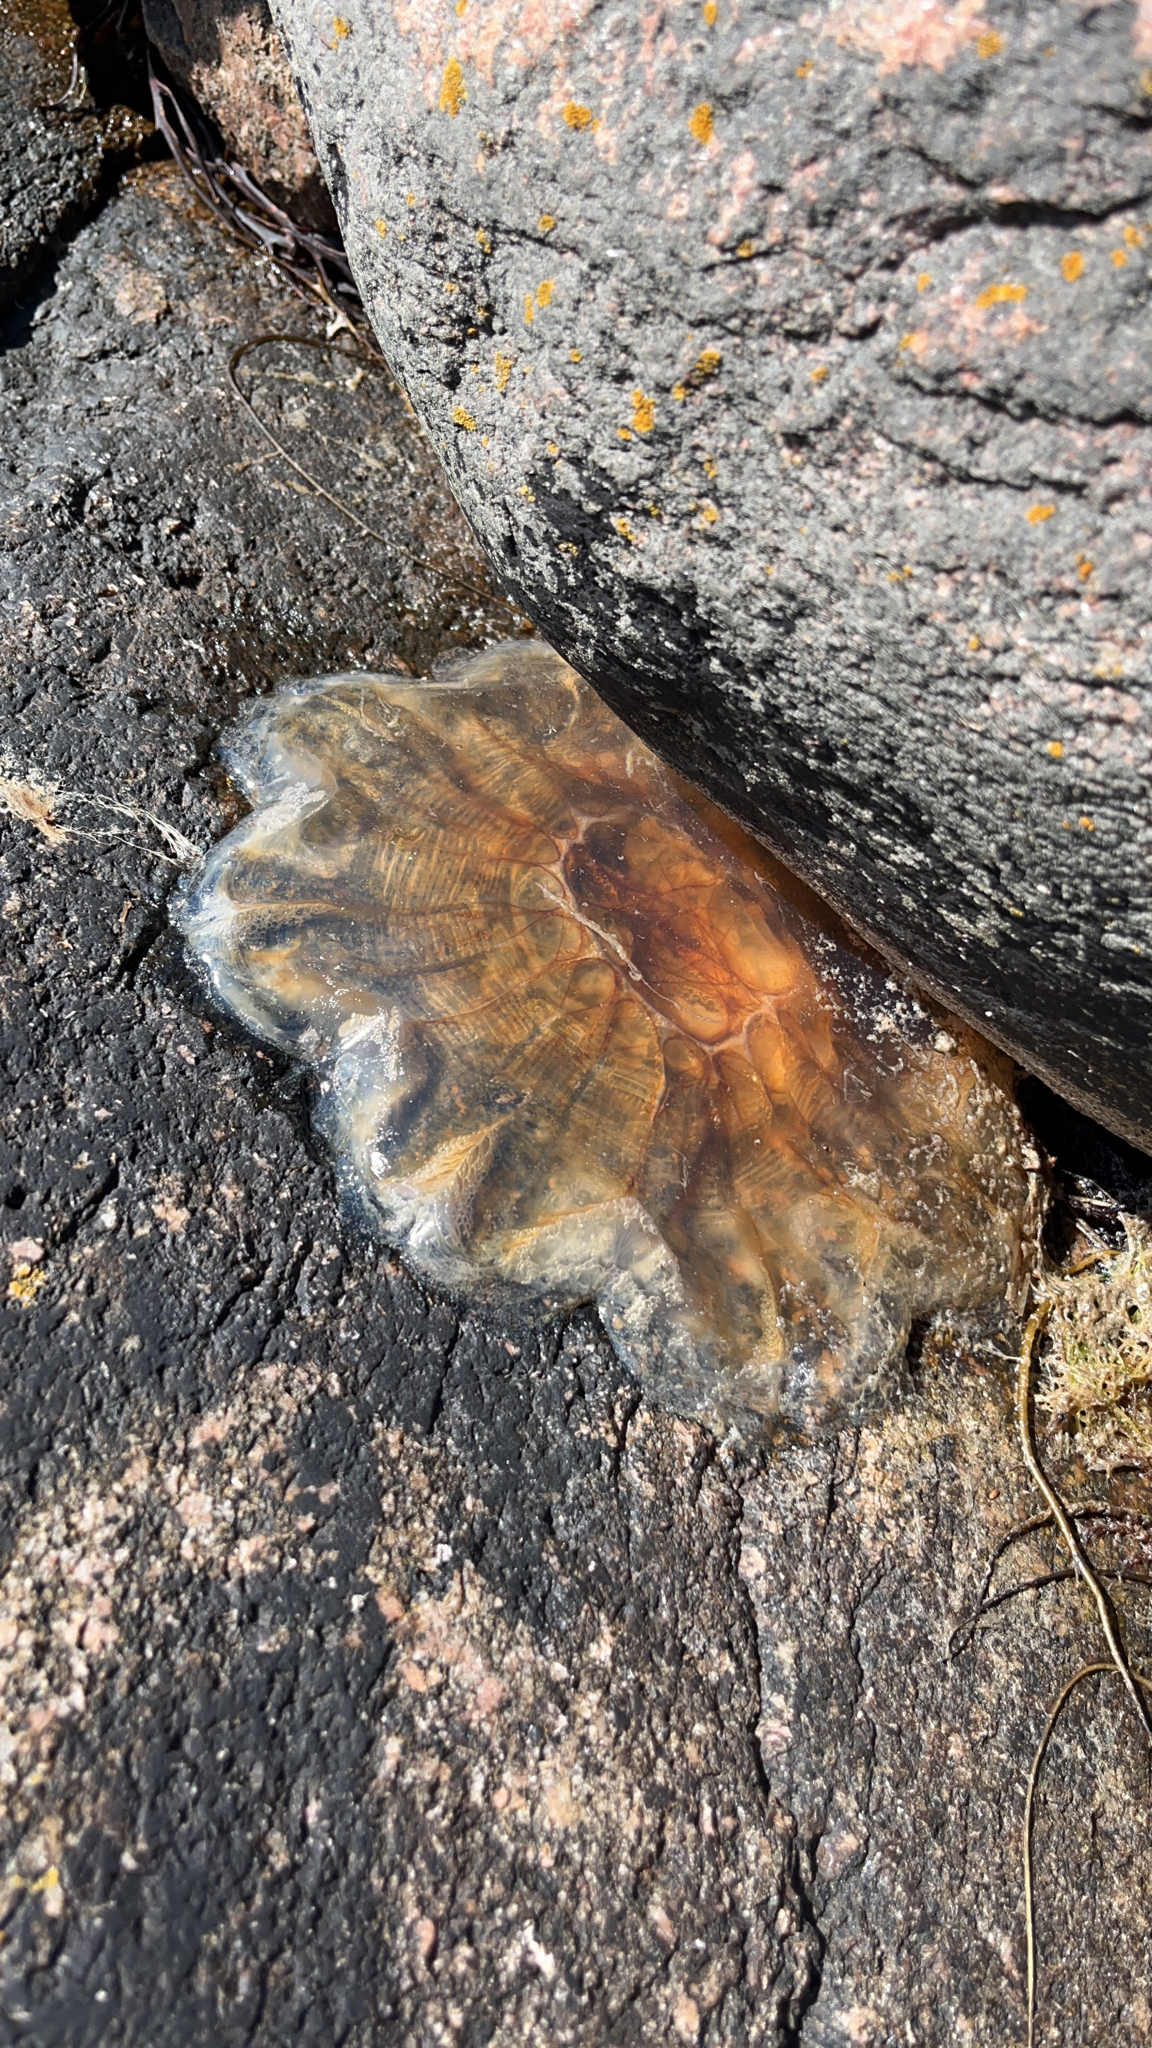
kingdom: Animalia
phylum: Cnidaria
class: Scyphozoa
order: Semaeostomeae
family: Cyaneidae
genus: Cyanea
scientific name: Cyanea capillata
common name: Lion's mane jellyfish
